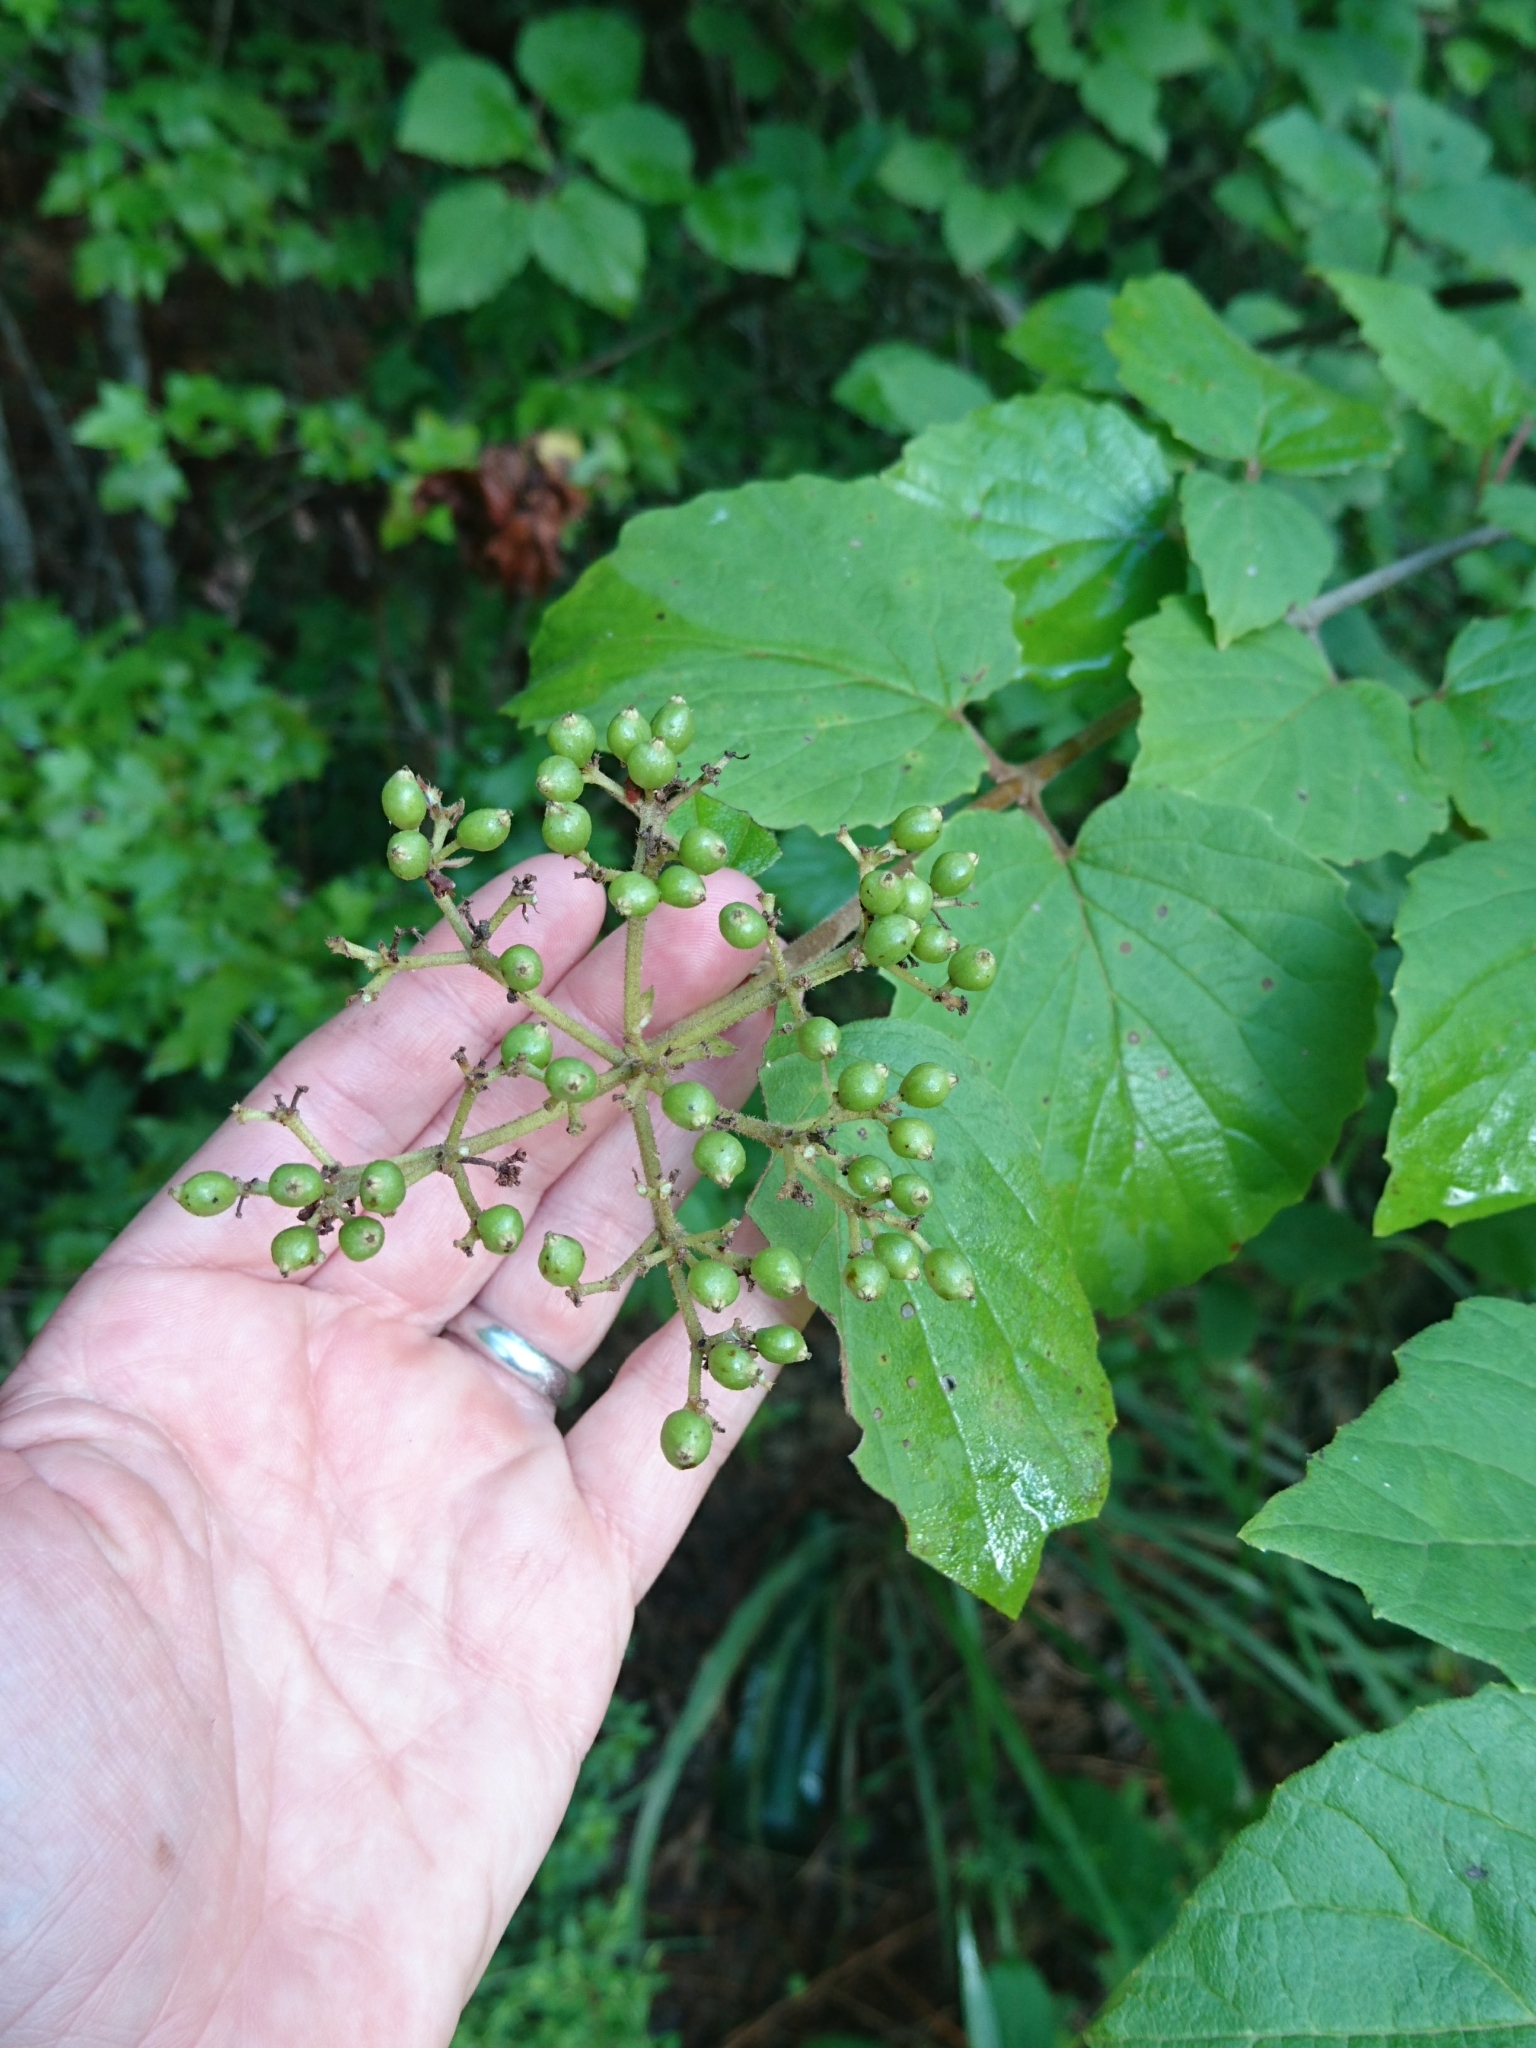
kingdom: Plantae
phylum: Tracheophyta
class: Magnoliopsida
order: Dipsacales
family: Viburnaceae
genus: Viburnum
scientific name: Viburnum scabrellum
